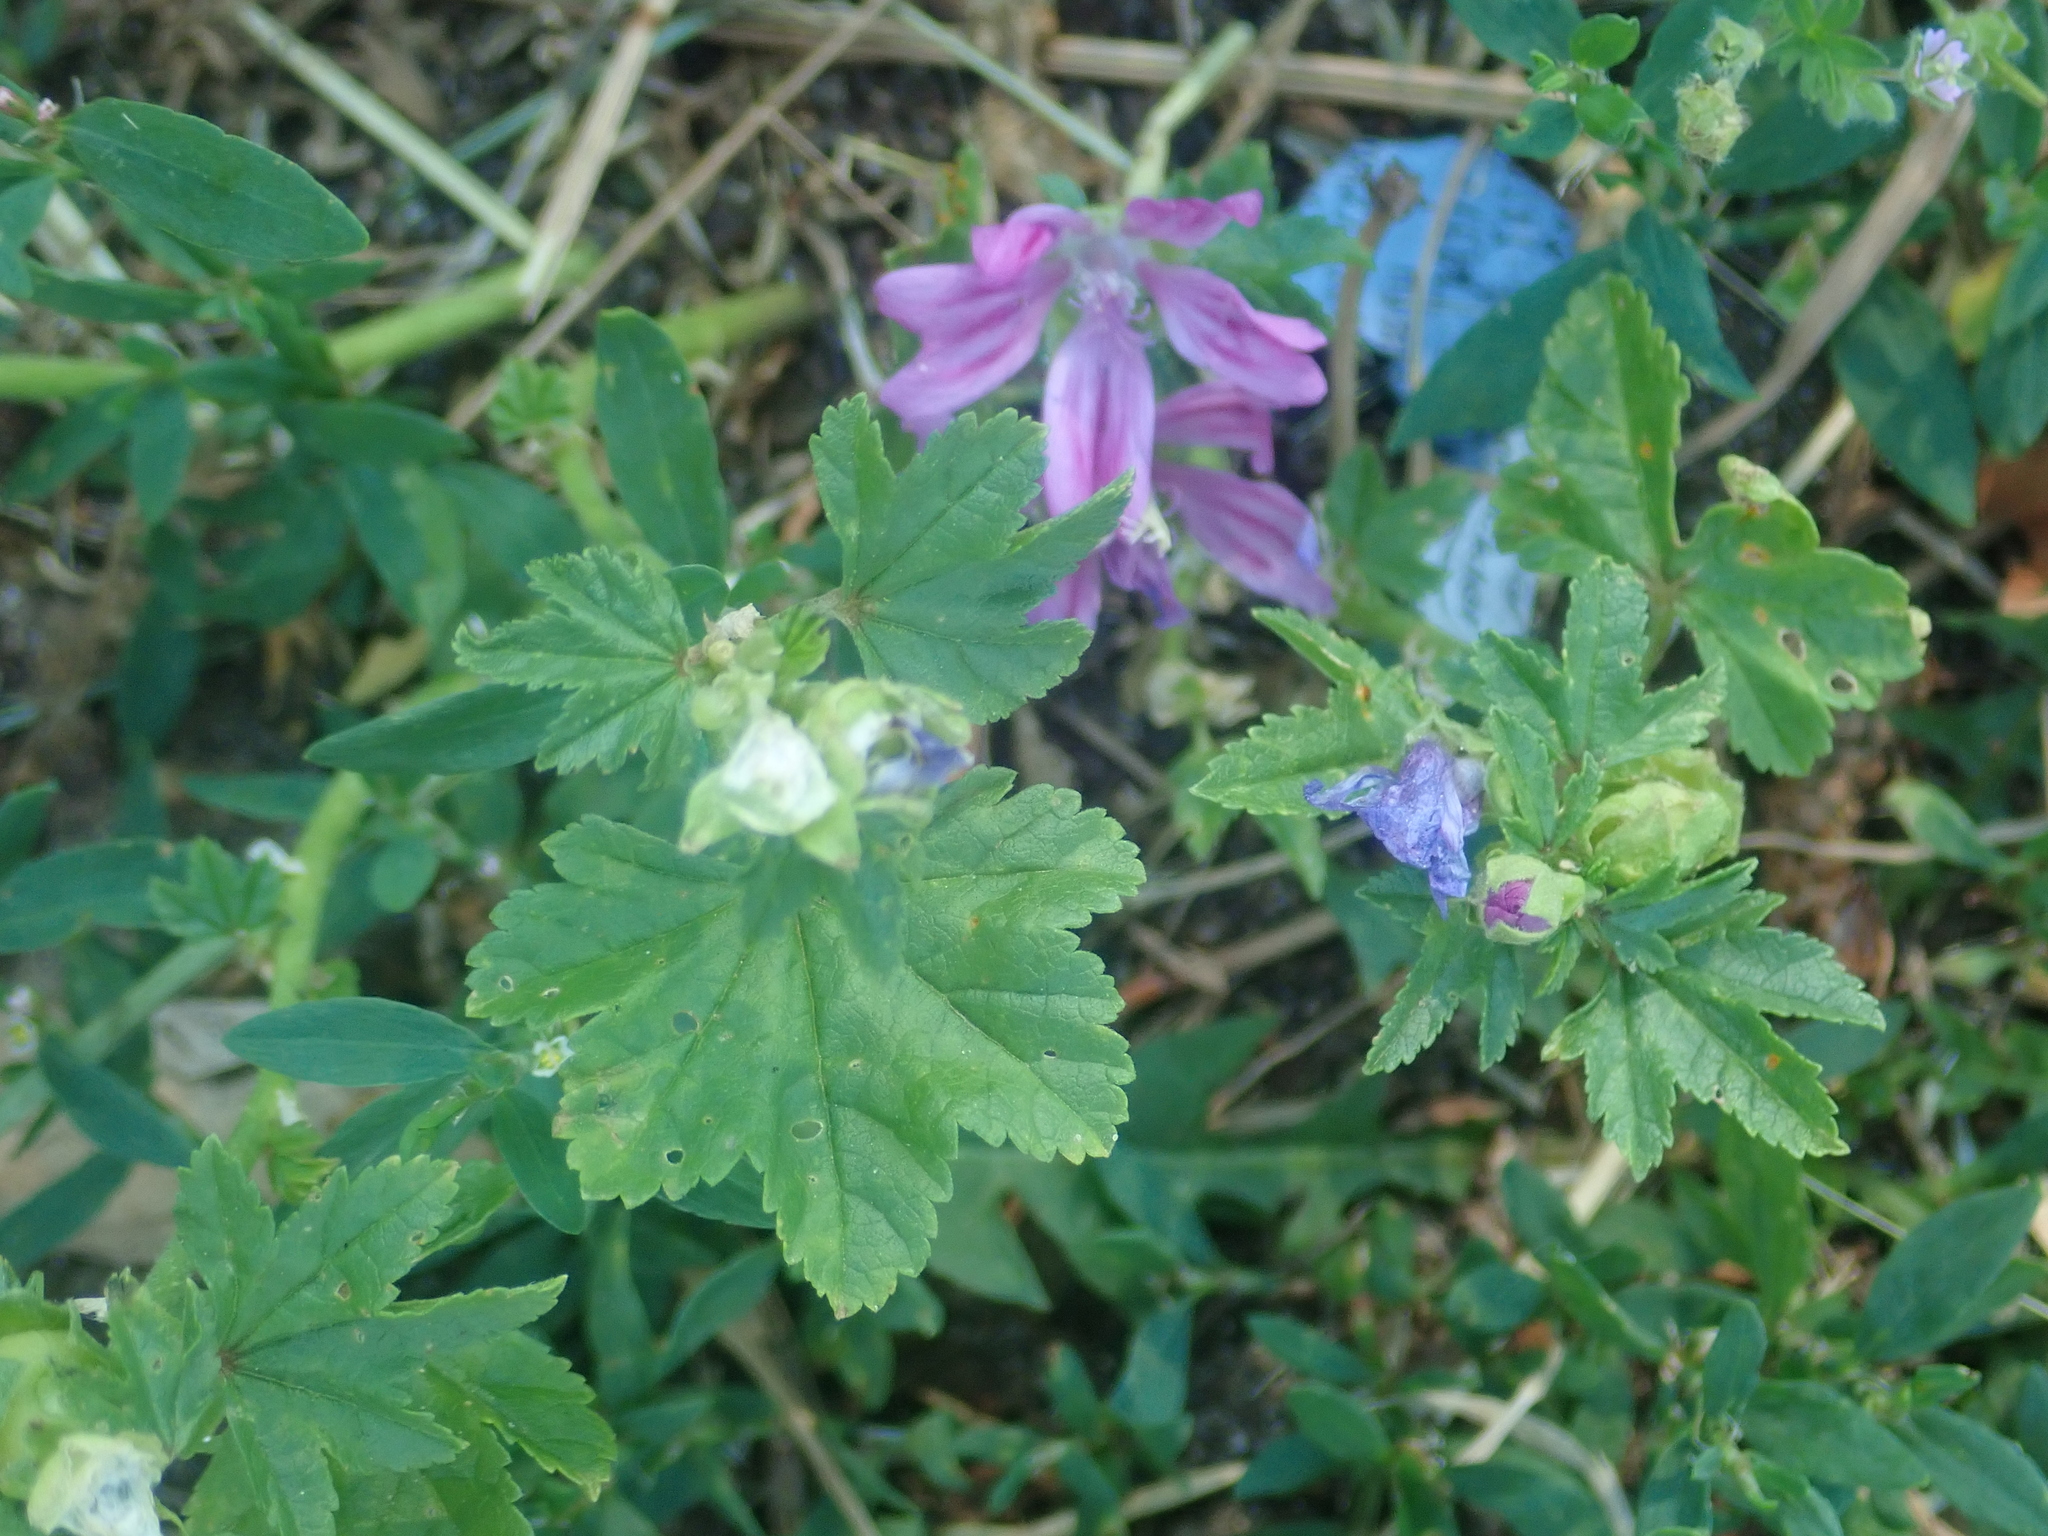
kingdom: Plantae
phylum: Tracheophyta
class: Magnoliopsida
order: Malvales
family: Malvaceae
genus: Malva
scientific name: Malva sylvestris
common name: Common mallow
